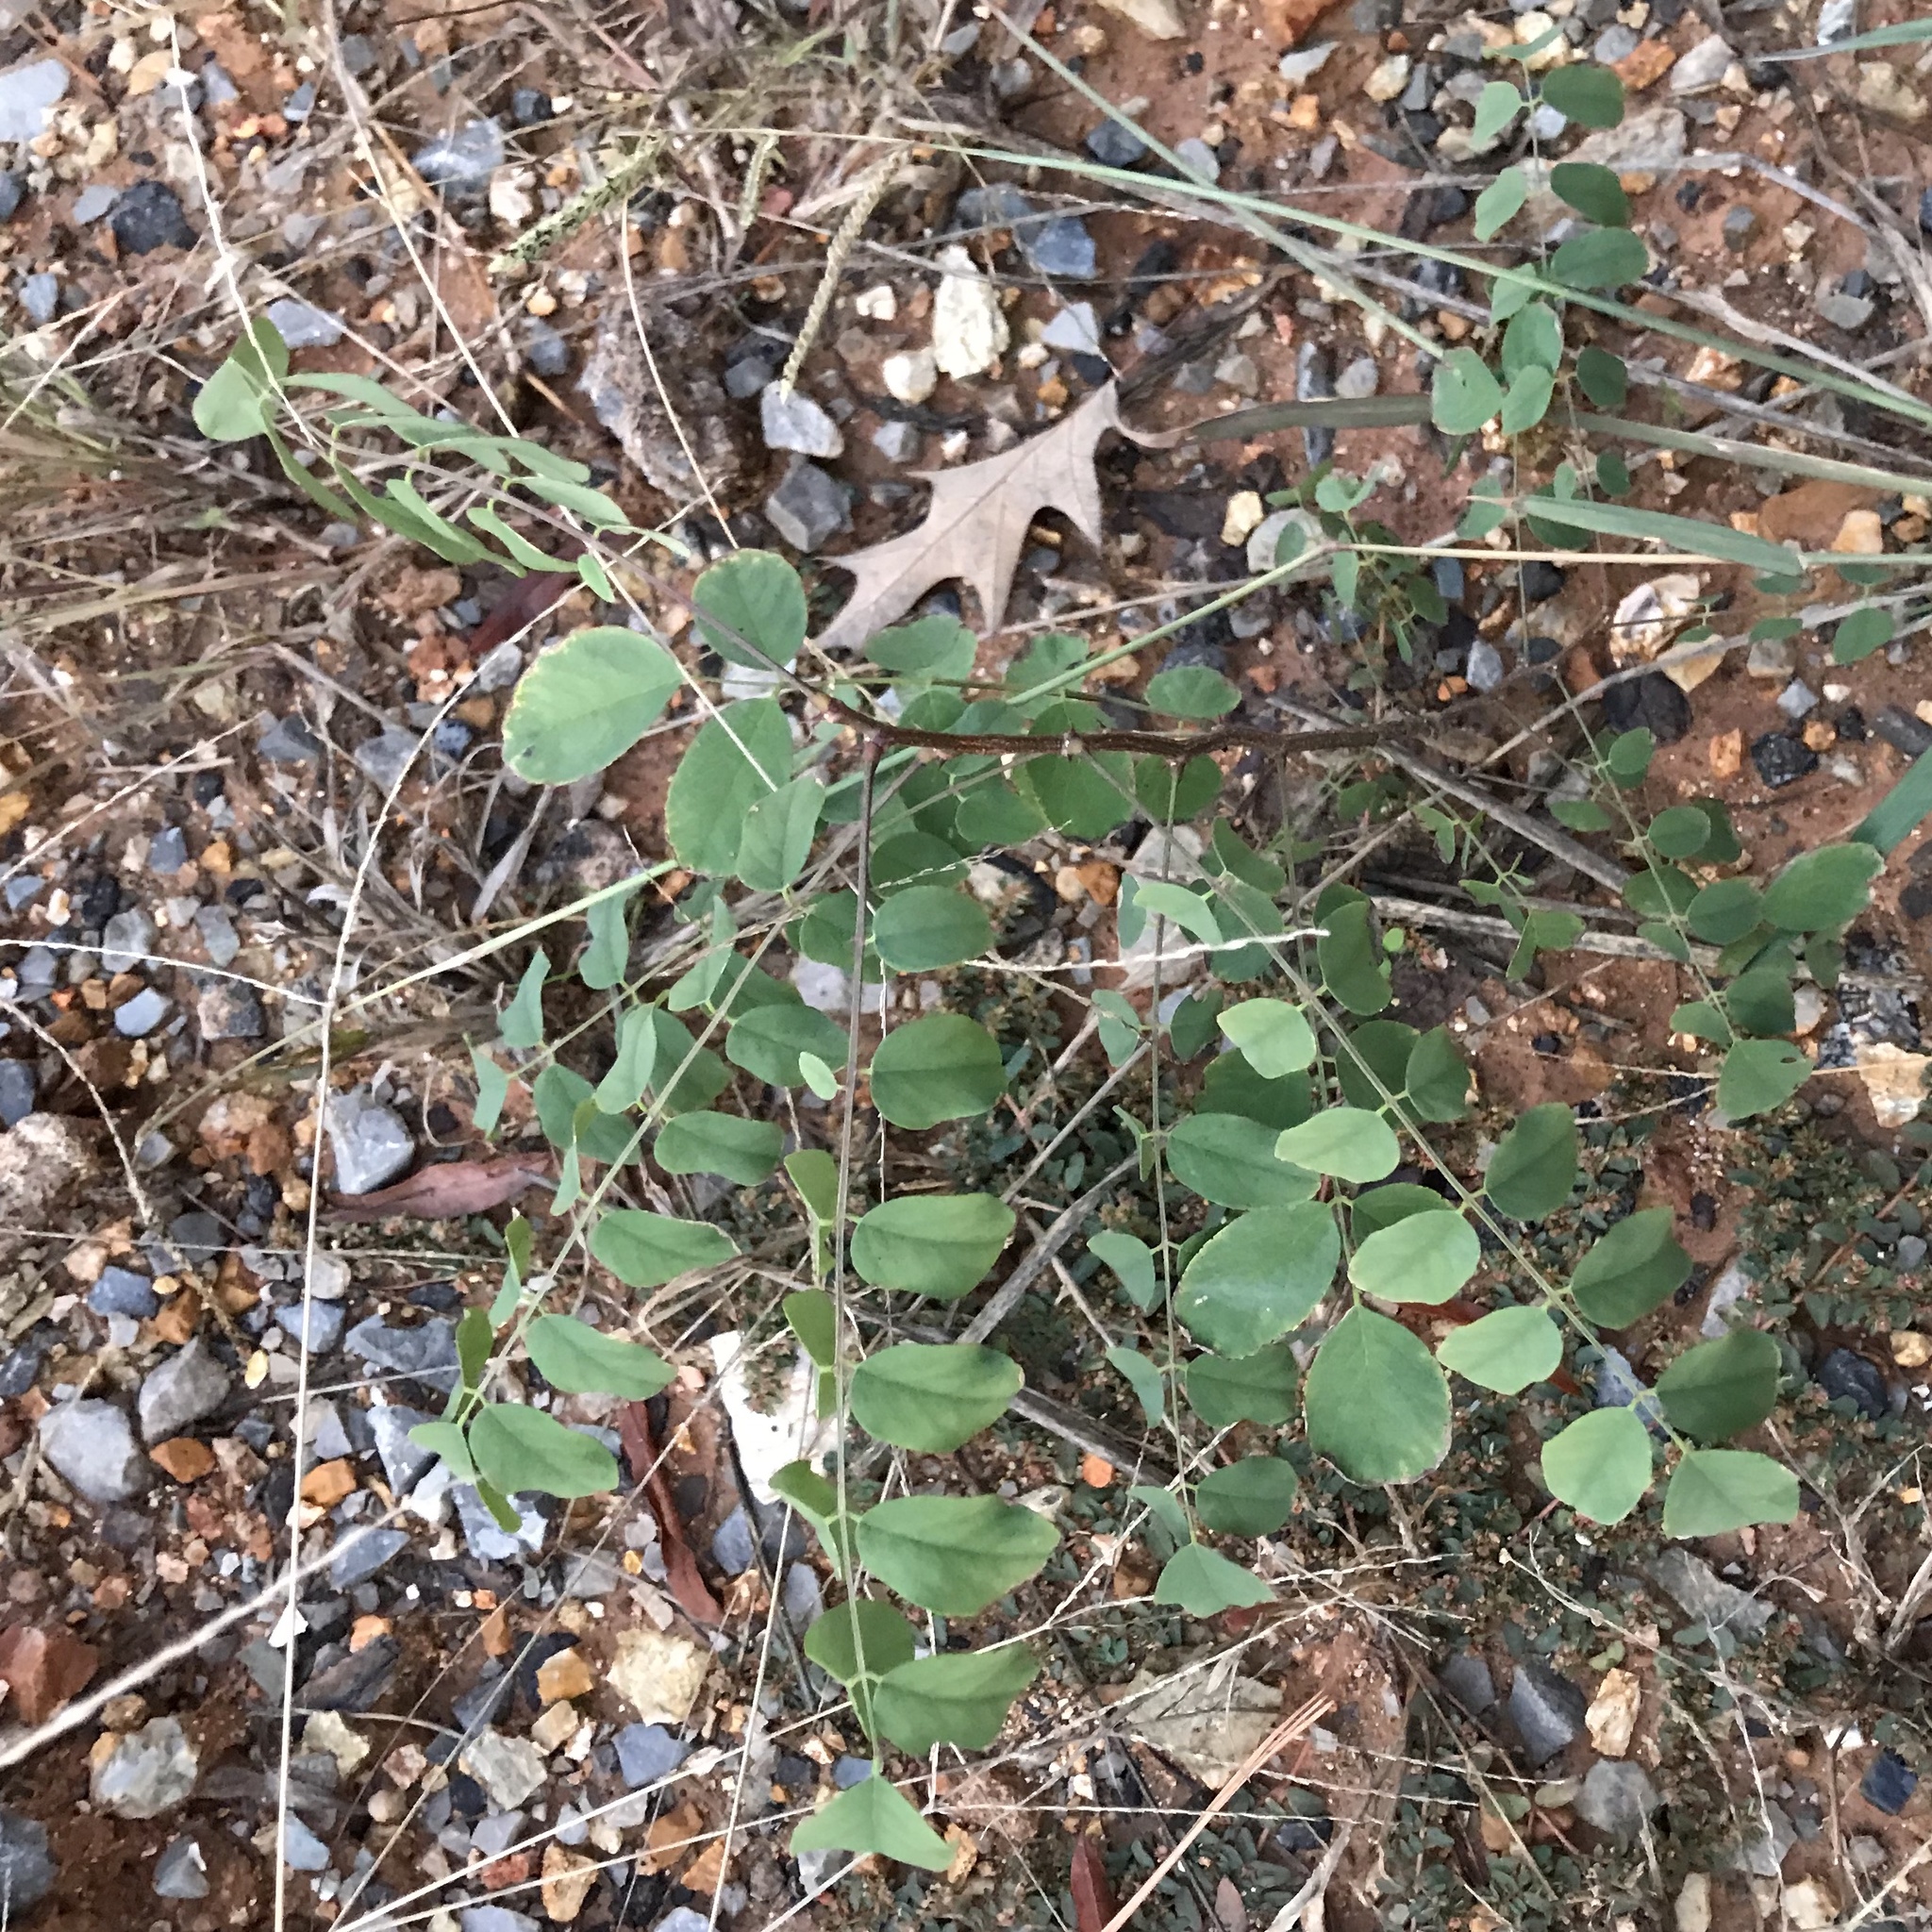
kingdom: Plantae
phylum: Tracheophyta
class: Magnoliopsida
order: Fabales
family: Fabaceae
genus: Robinia
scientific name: Robinia pseudoacacia
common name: Black locust
